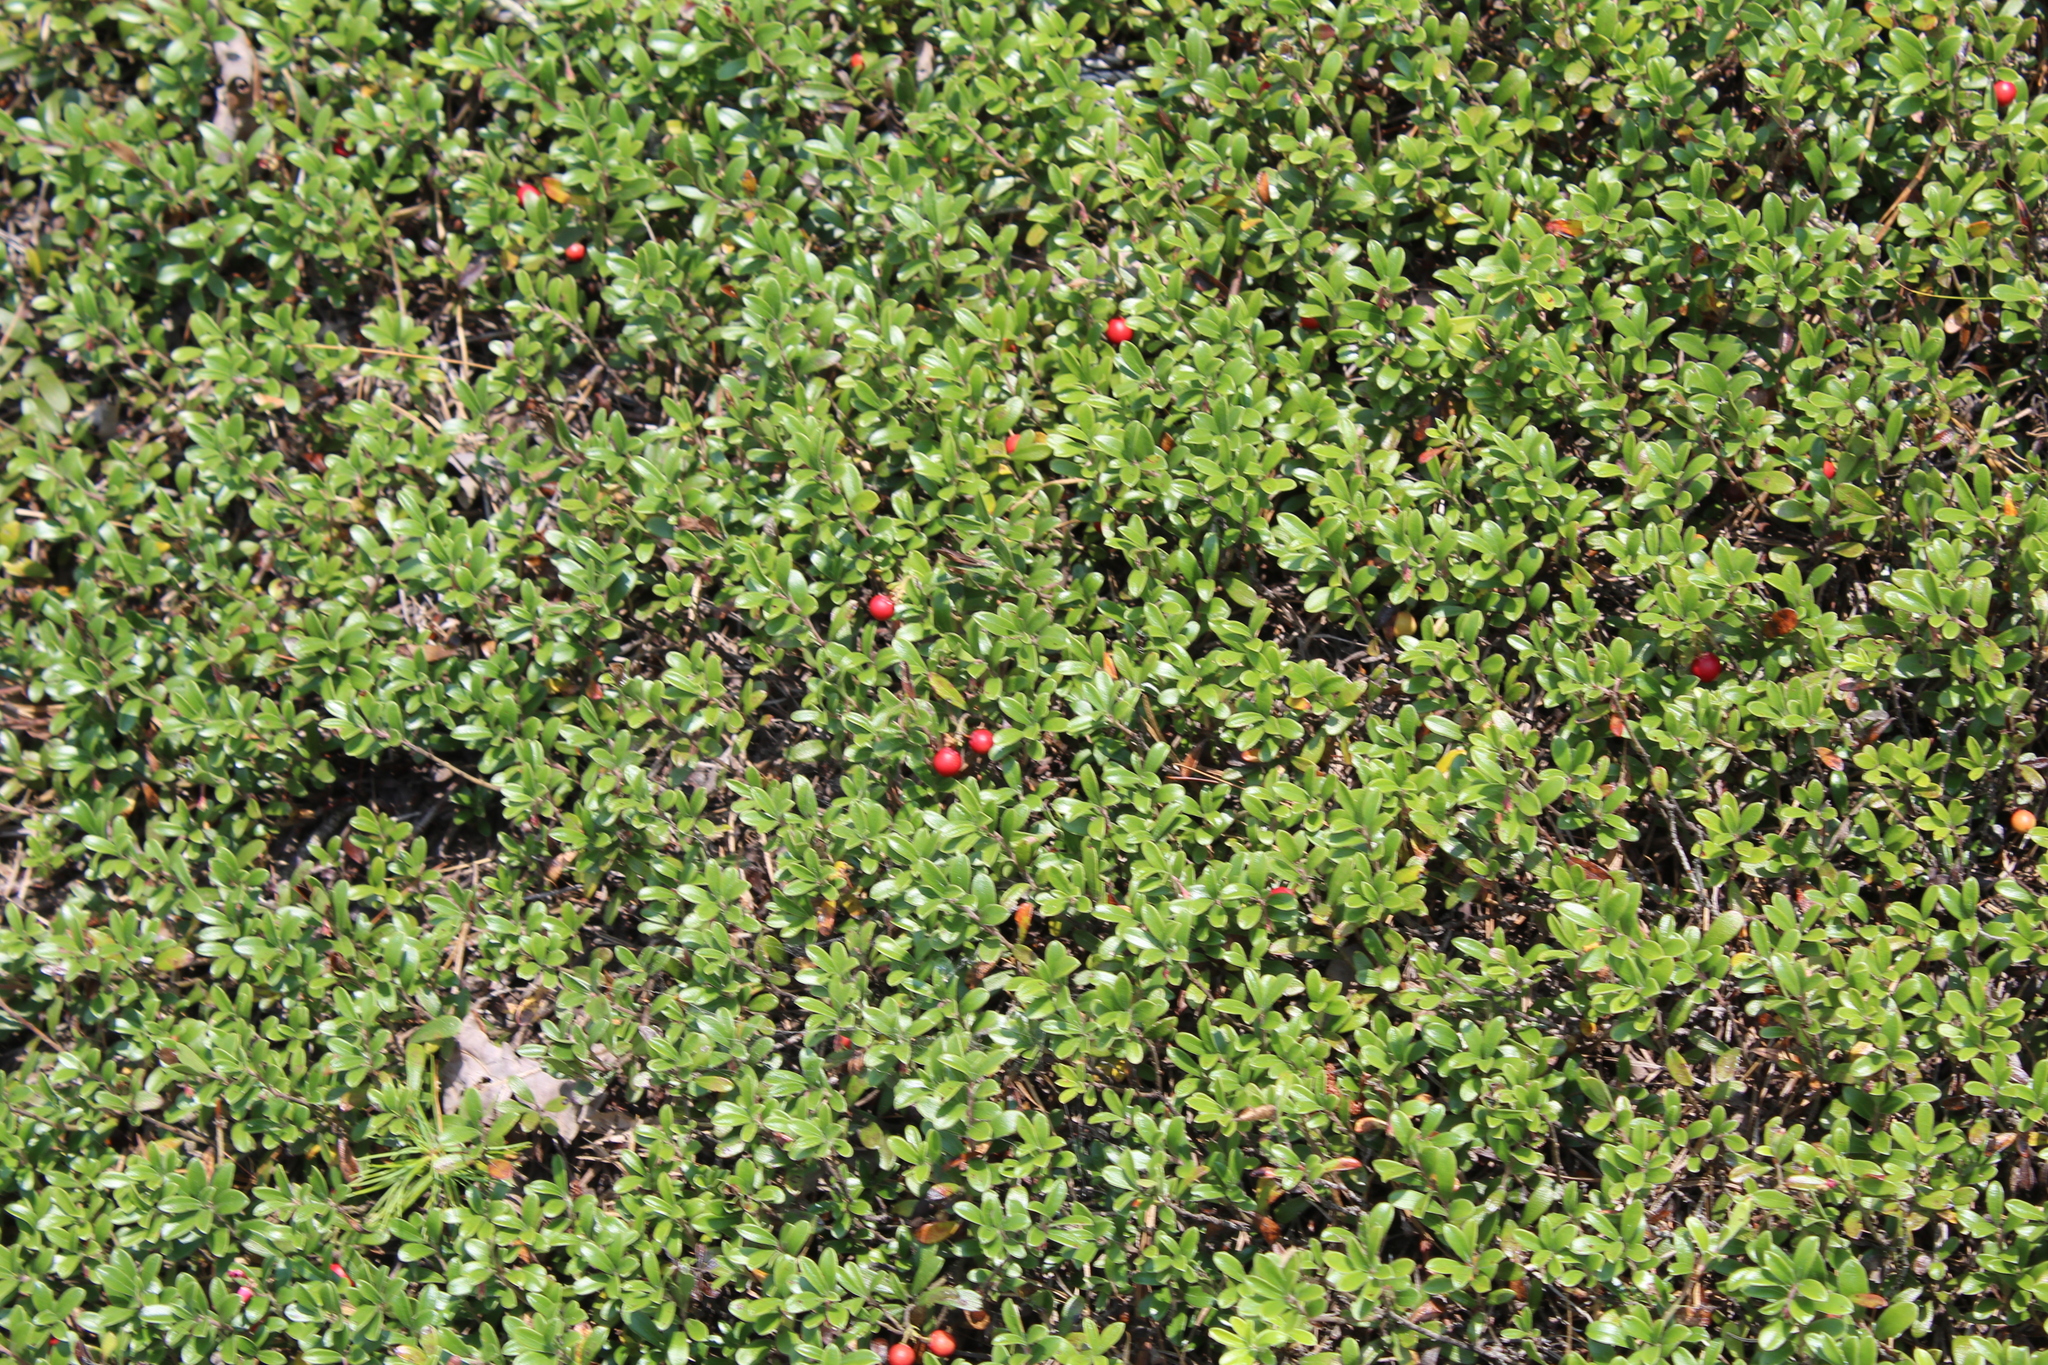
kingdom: Plantae
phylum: Tracheophyta
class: Magnoliopsida
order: Ericales
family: Ericaceae
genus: Arctostaphylos
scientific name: Arctostaphylos uva-ursi
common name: Bearberry
